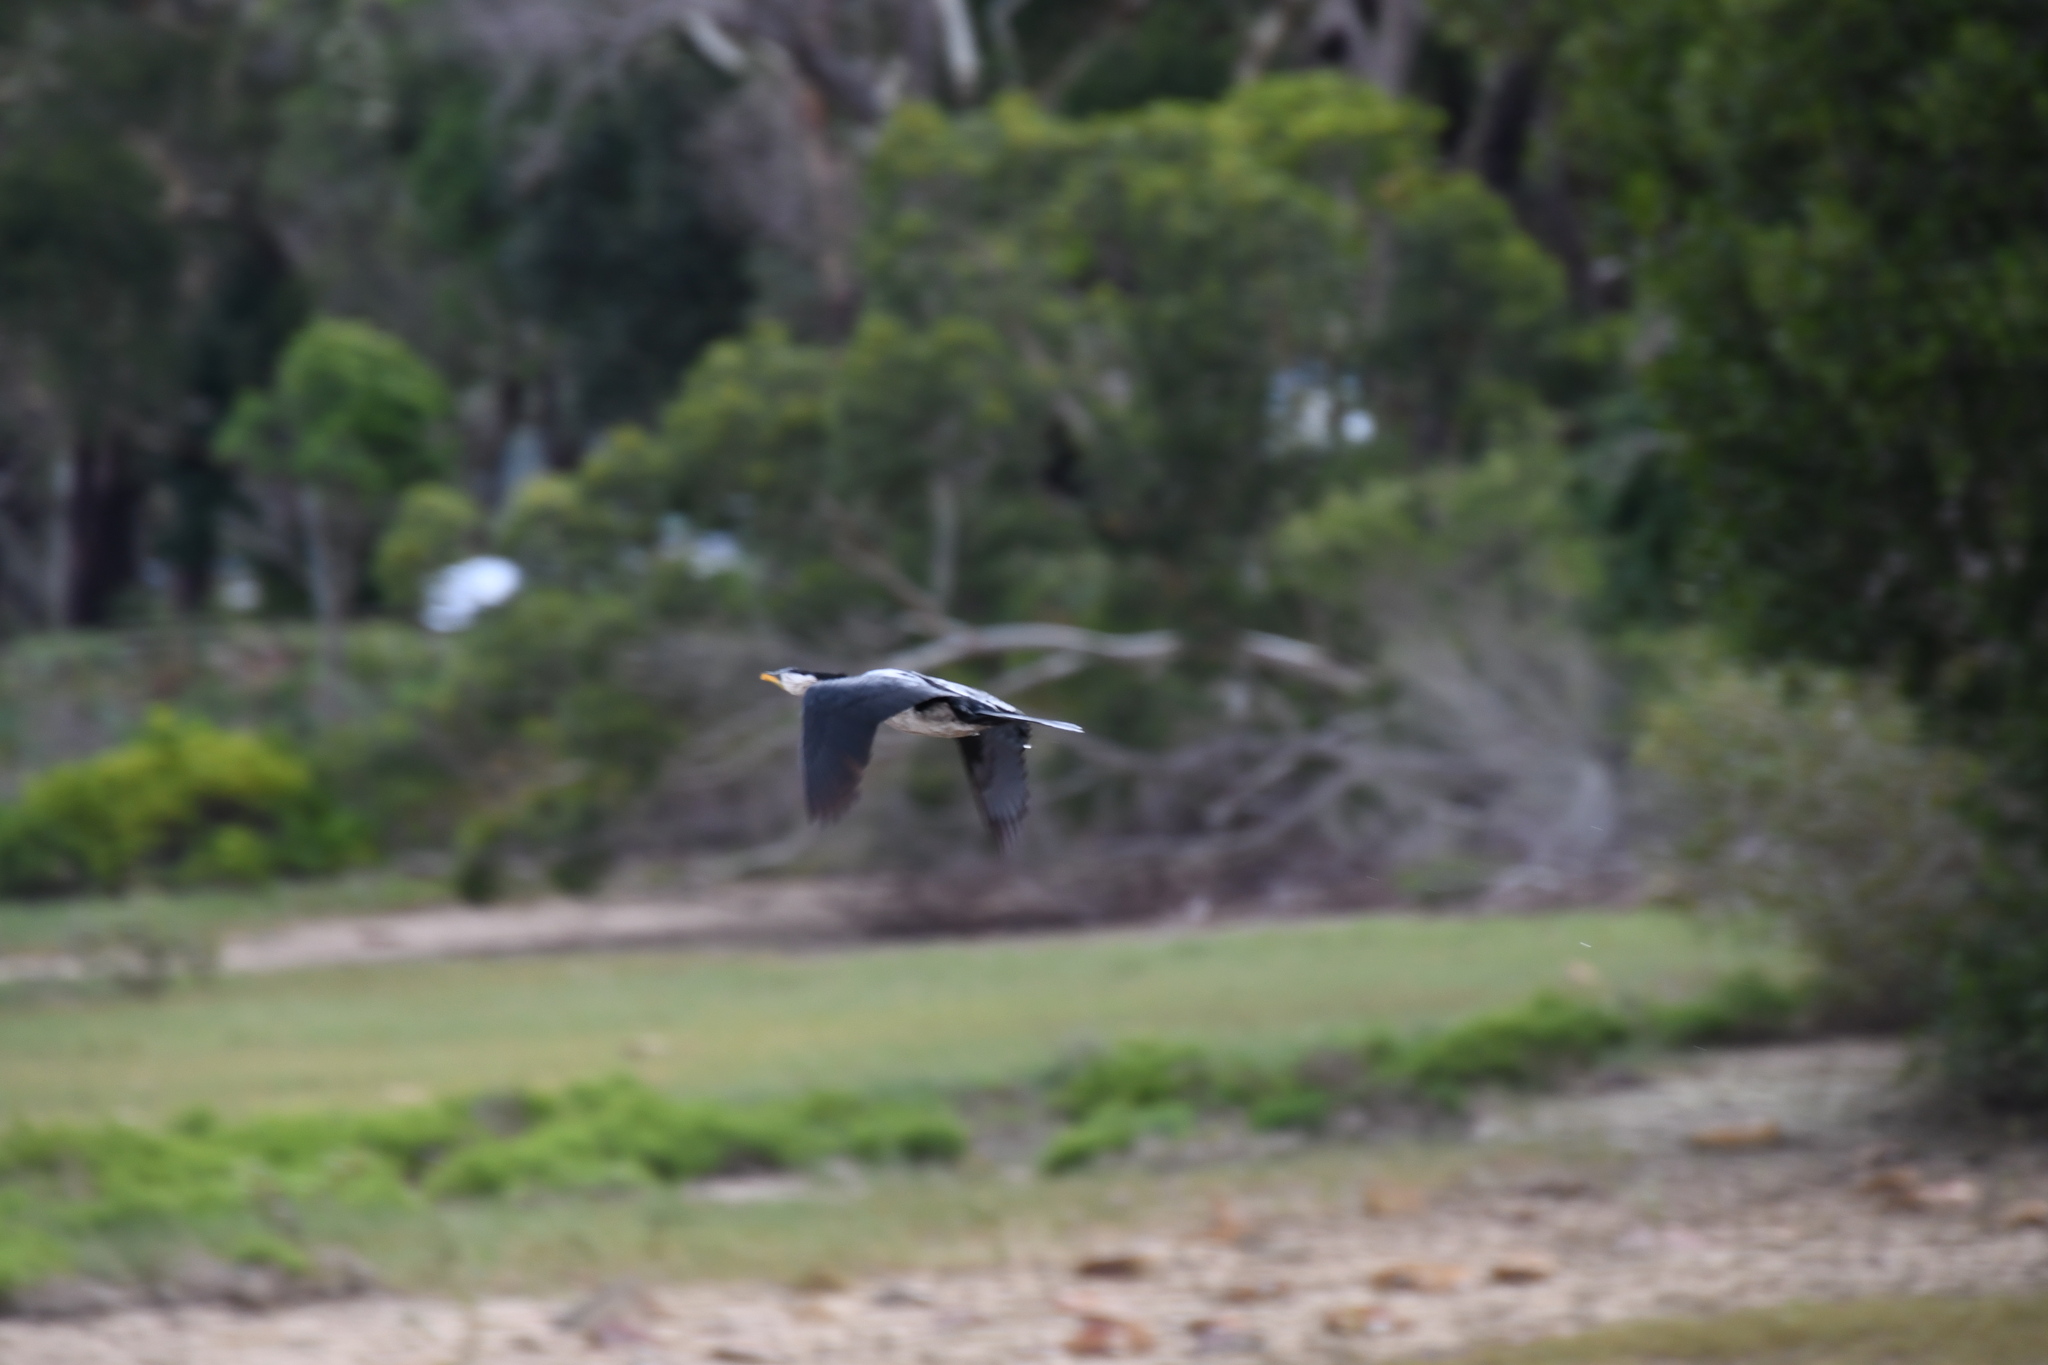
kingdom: Animalia
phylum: Chordata
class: Aves
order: Suliformes
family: Phalacrocoracidae
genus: Microcarbo
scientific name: Microcarbo melanoleucos
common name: Little pied cormorant
